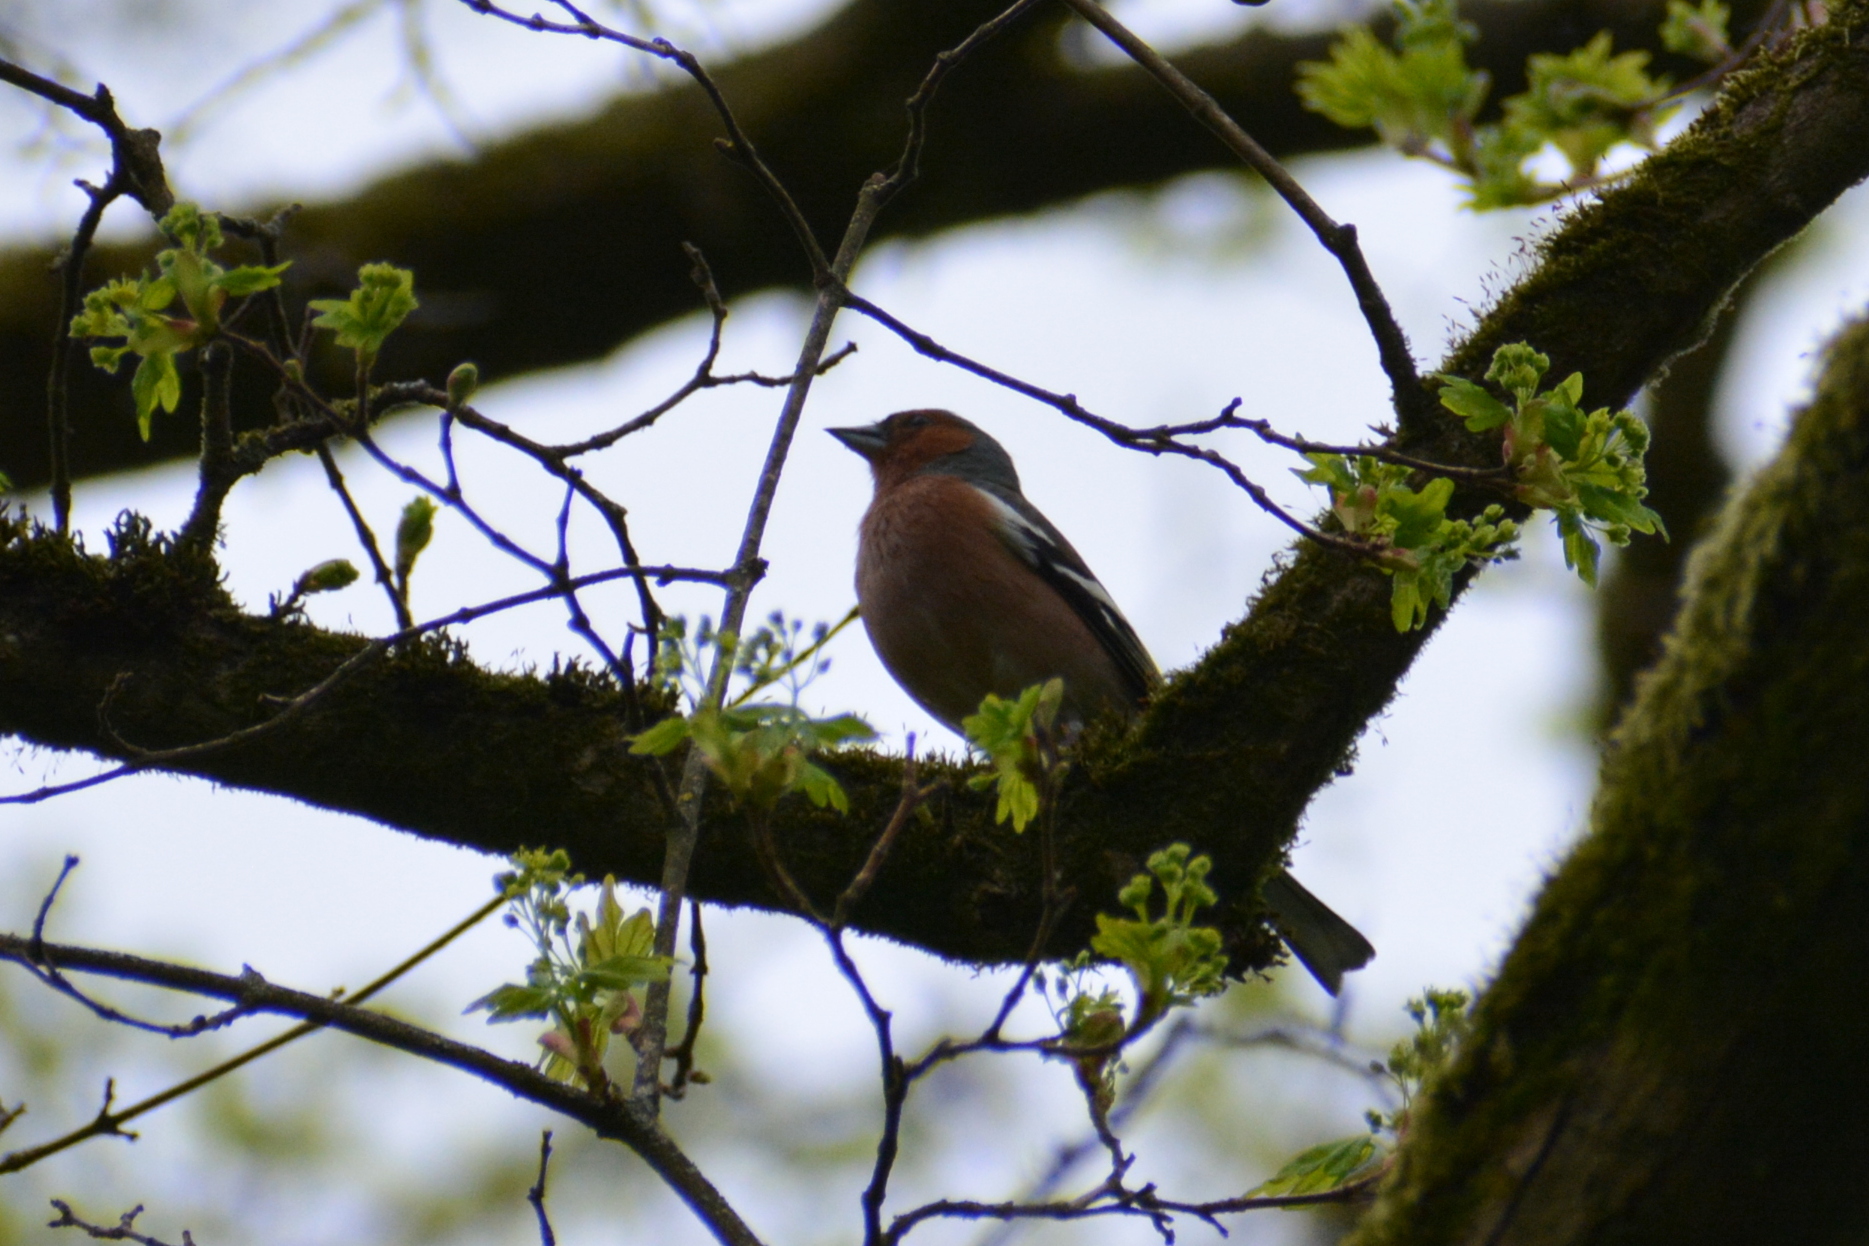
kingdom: Animalia
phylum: Chordata
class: Aves
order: Passeriformes
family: Fringillidae
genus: Fringilla
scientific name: Fringilla coelebs
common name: Common chaffinch
